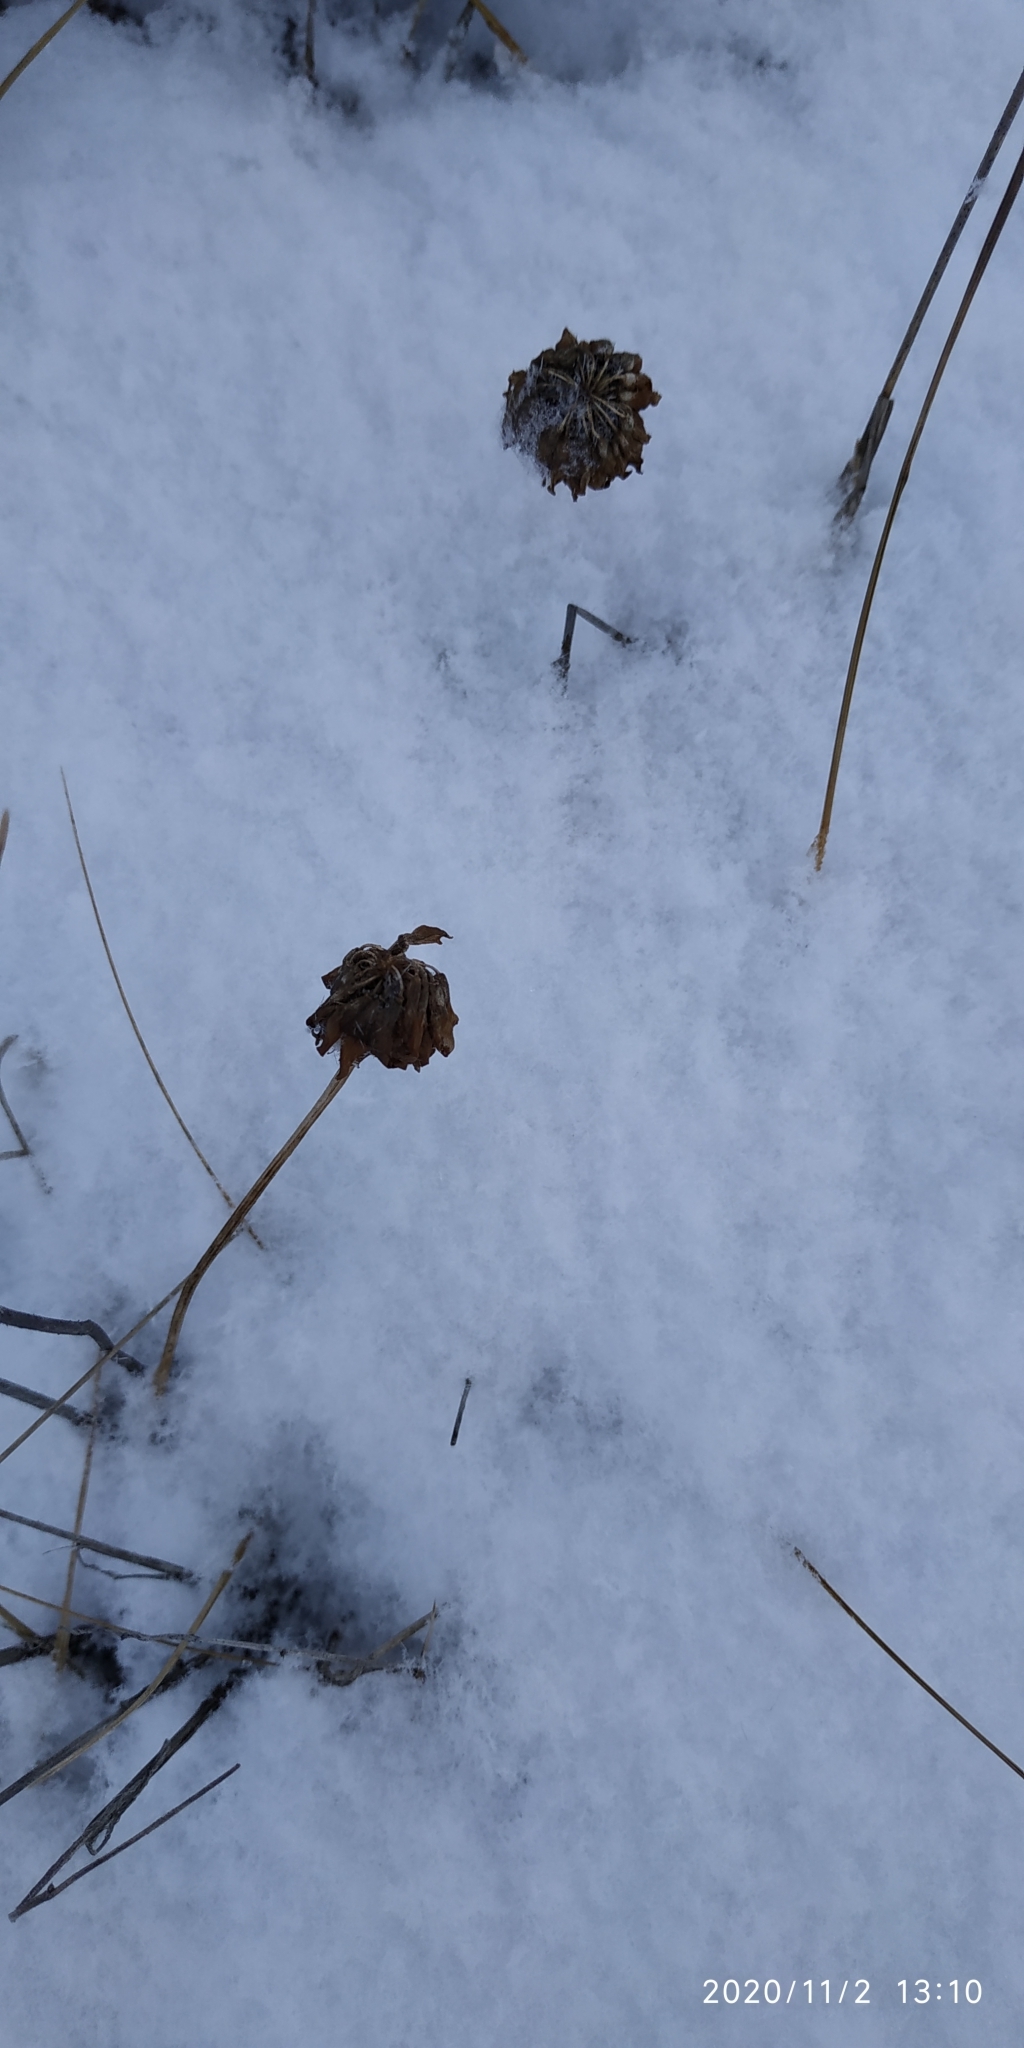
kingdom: Plantae
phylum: Tracheophyta
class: Magnoliopsida
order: Fabales
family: Fabaceae
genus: Trifolium
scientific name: Trifolium repens
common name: White clover
